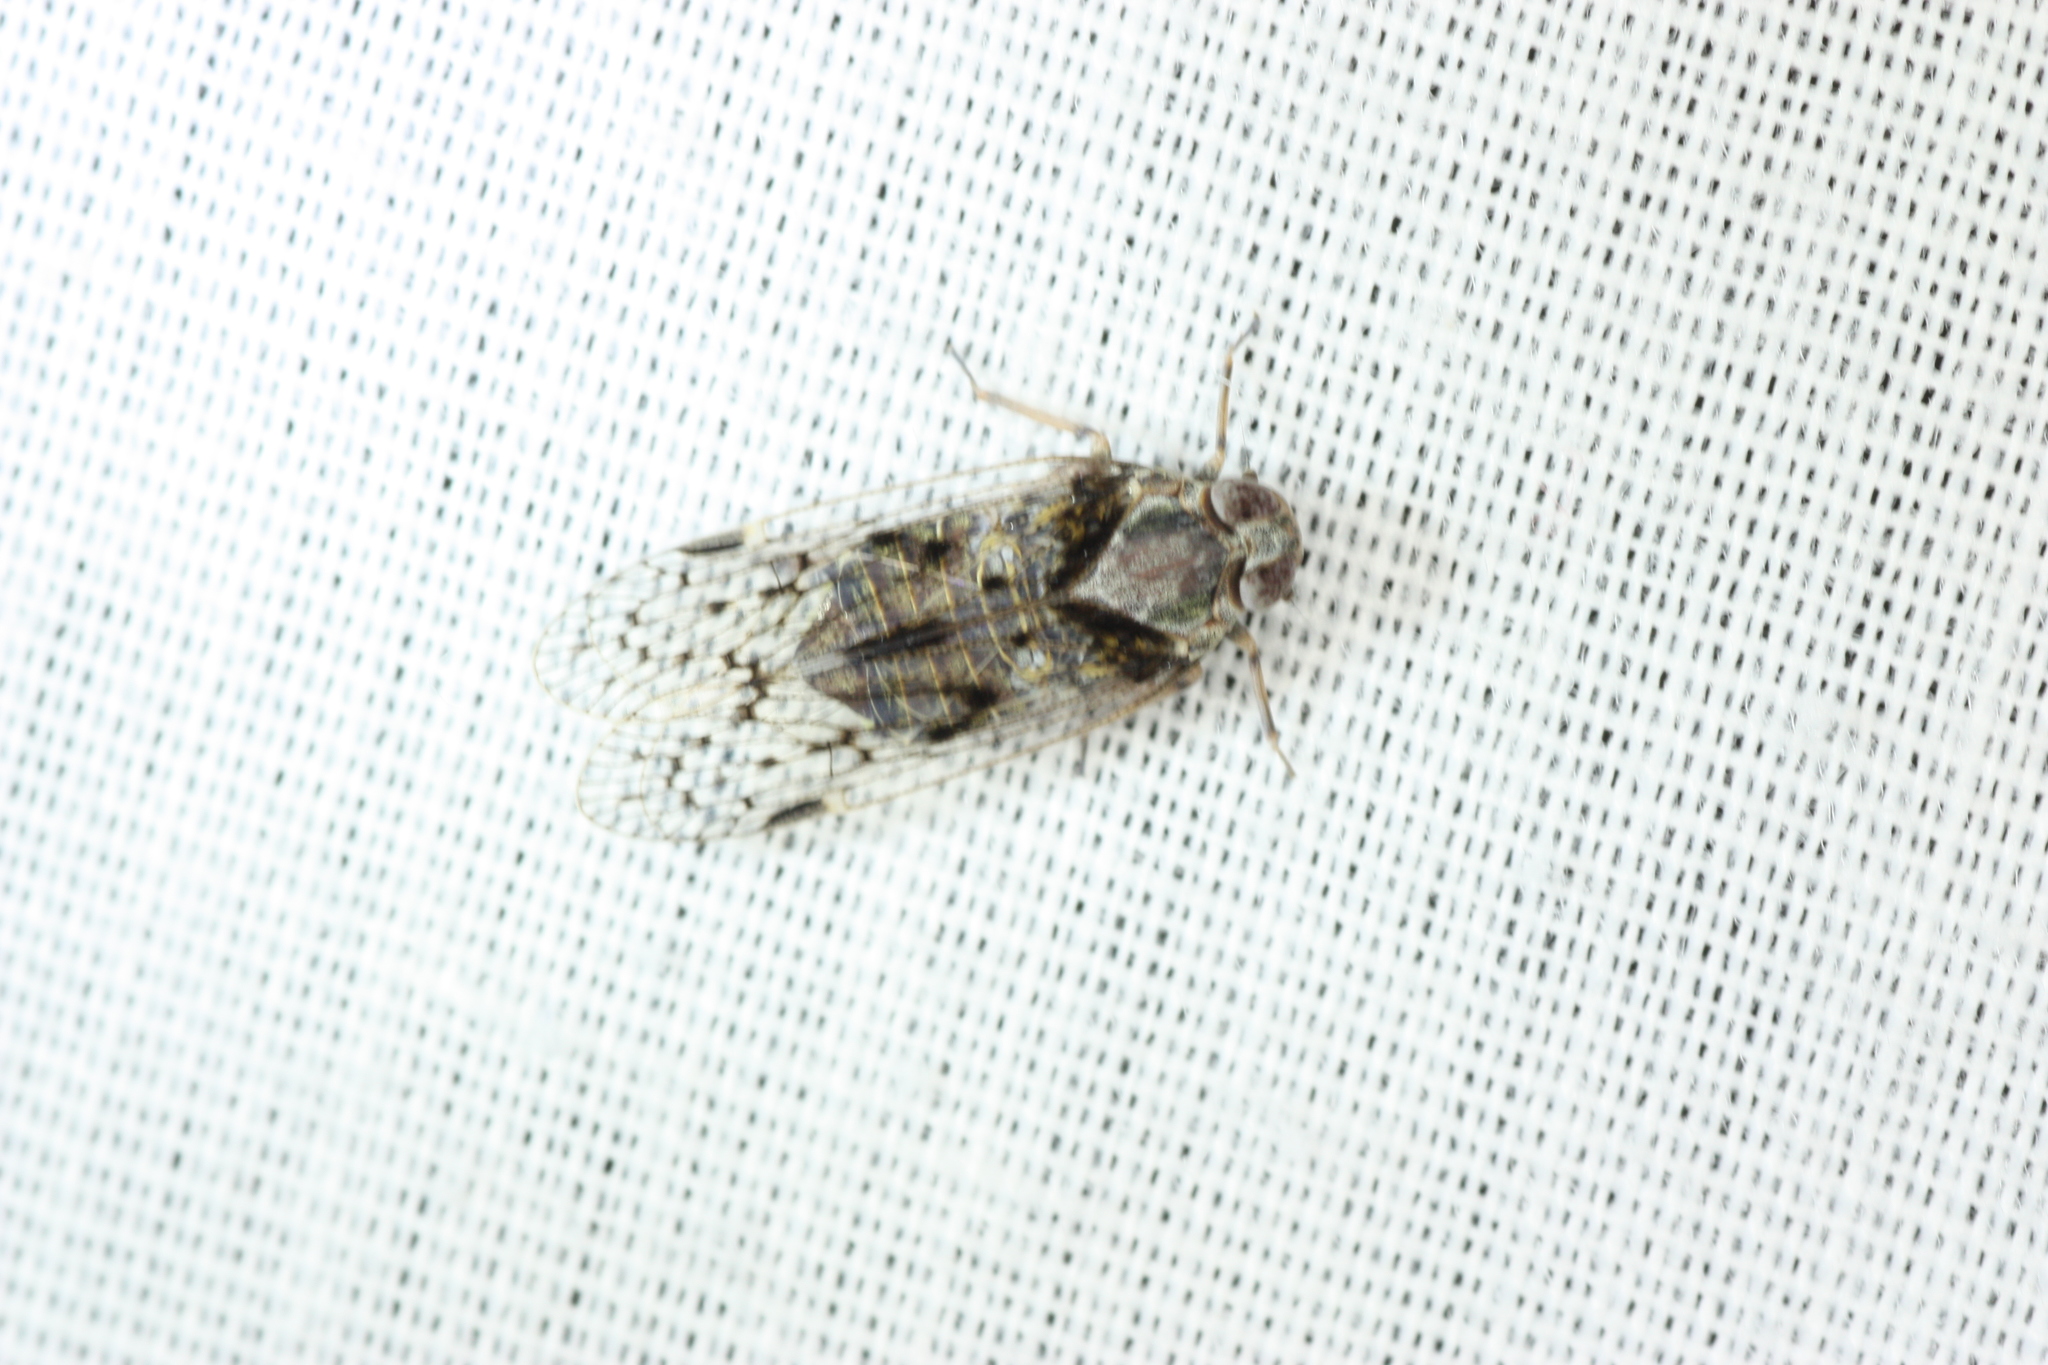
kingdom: Animalia
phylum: Arthropoda
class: Insecta
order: Hemiptera
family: Cixiidae
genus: Melanoliarus
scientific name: Melanoliarus aridus
